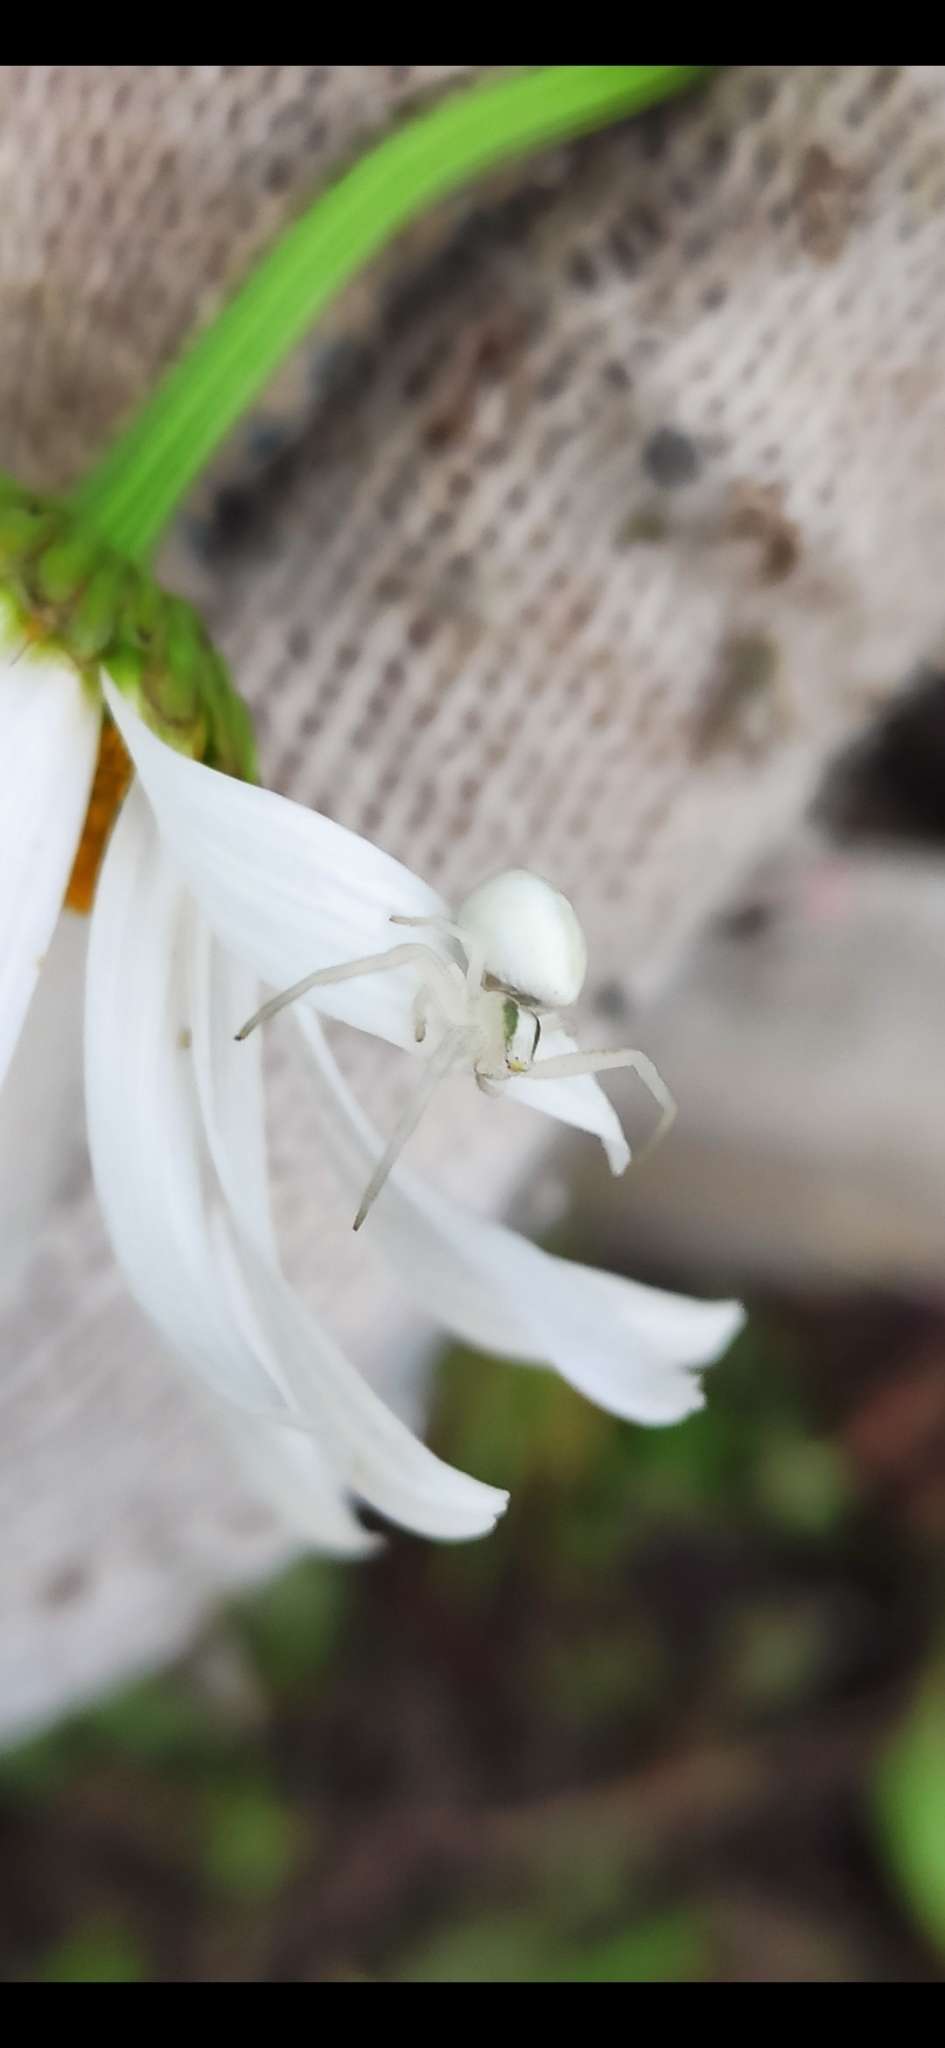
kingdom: Animalia
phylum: Arthropoda
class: Arachnida
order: Araneae
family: Thomisidae
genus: Misumena
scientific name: Misumena vatia
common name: Goldenrod crab spider
